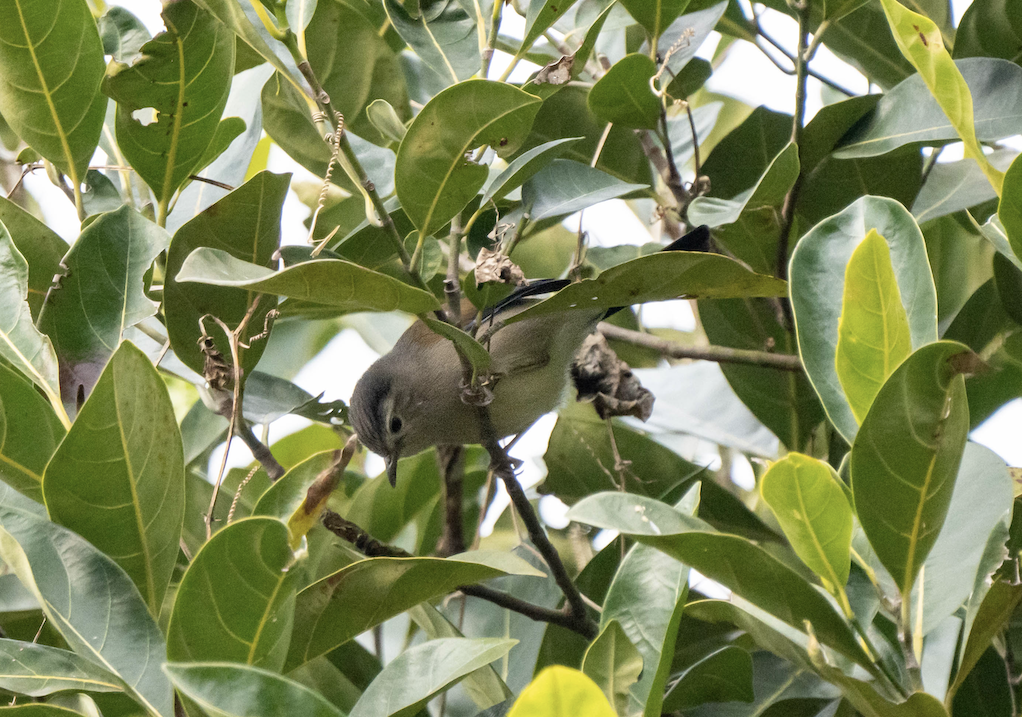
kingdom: Animalia
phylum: Chordata
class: Aves
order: Passeriformes
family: Leiothrichidae
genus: Minla
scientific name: Minla cyanouroptera
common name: Blue-winged minla
